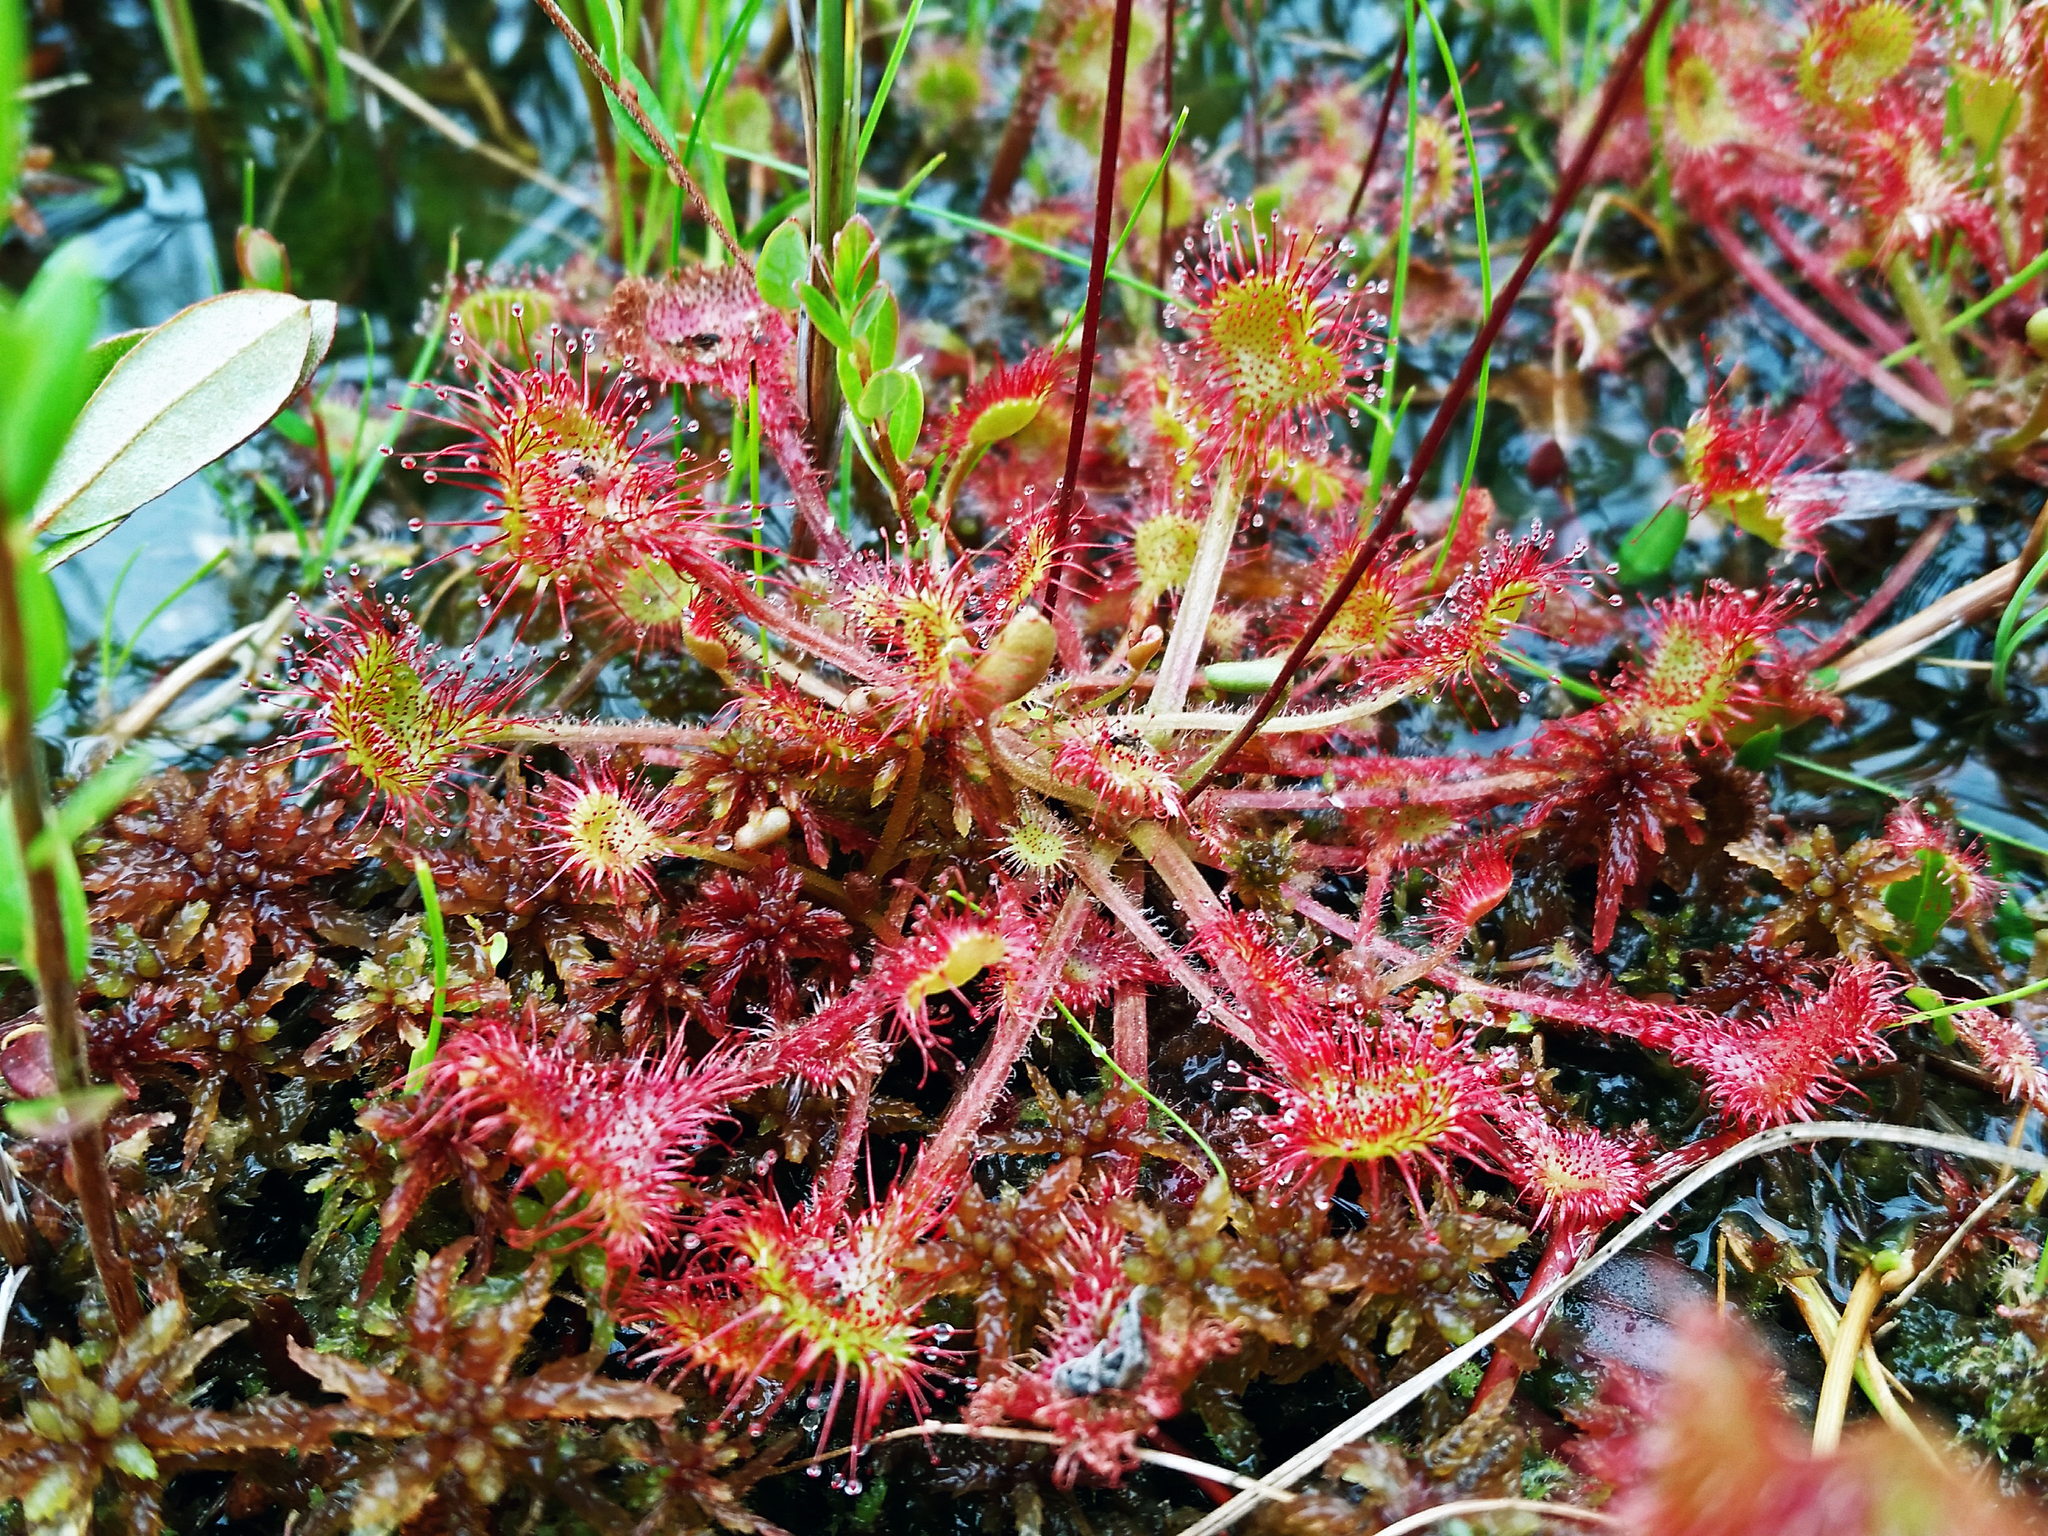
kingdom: Plantae
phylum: Tracheophyta
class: Magnoliopsida
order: Caryophyllales
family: Droseraceae
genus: Drosera
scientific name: Drosera rotundifolia
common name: Round-leaved sundew
